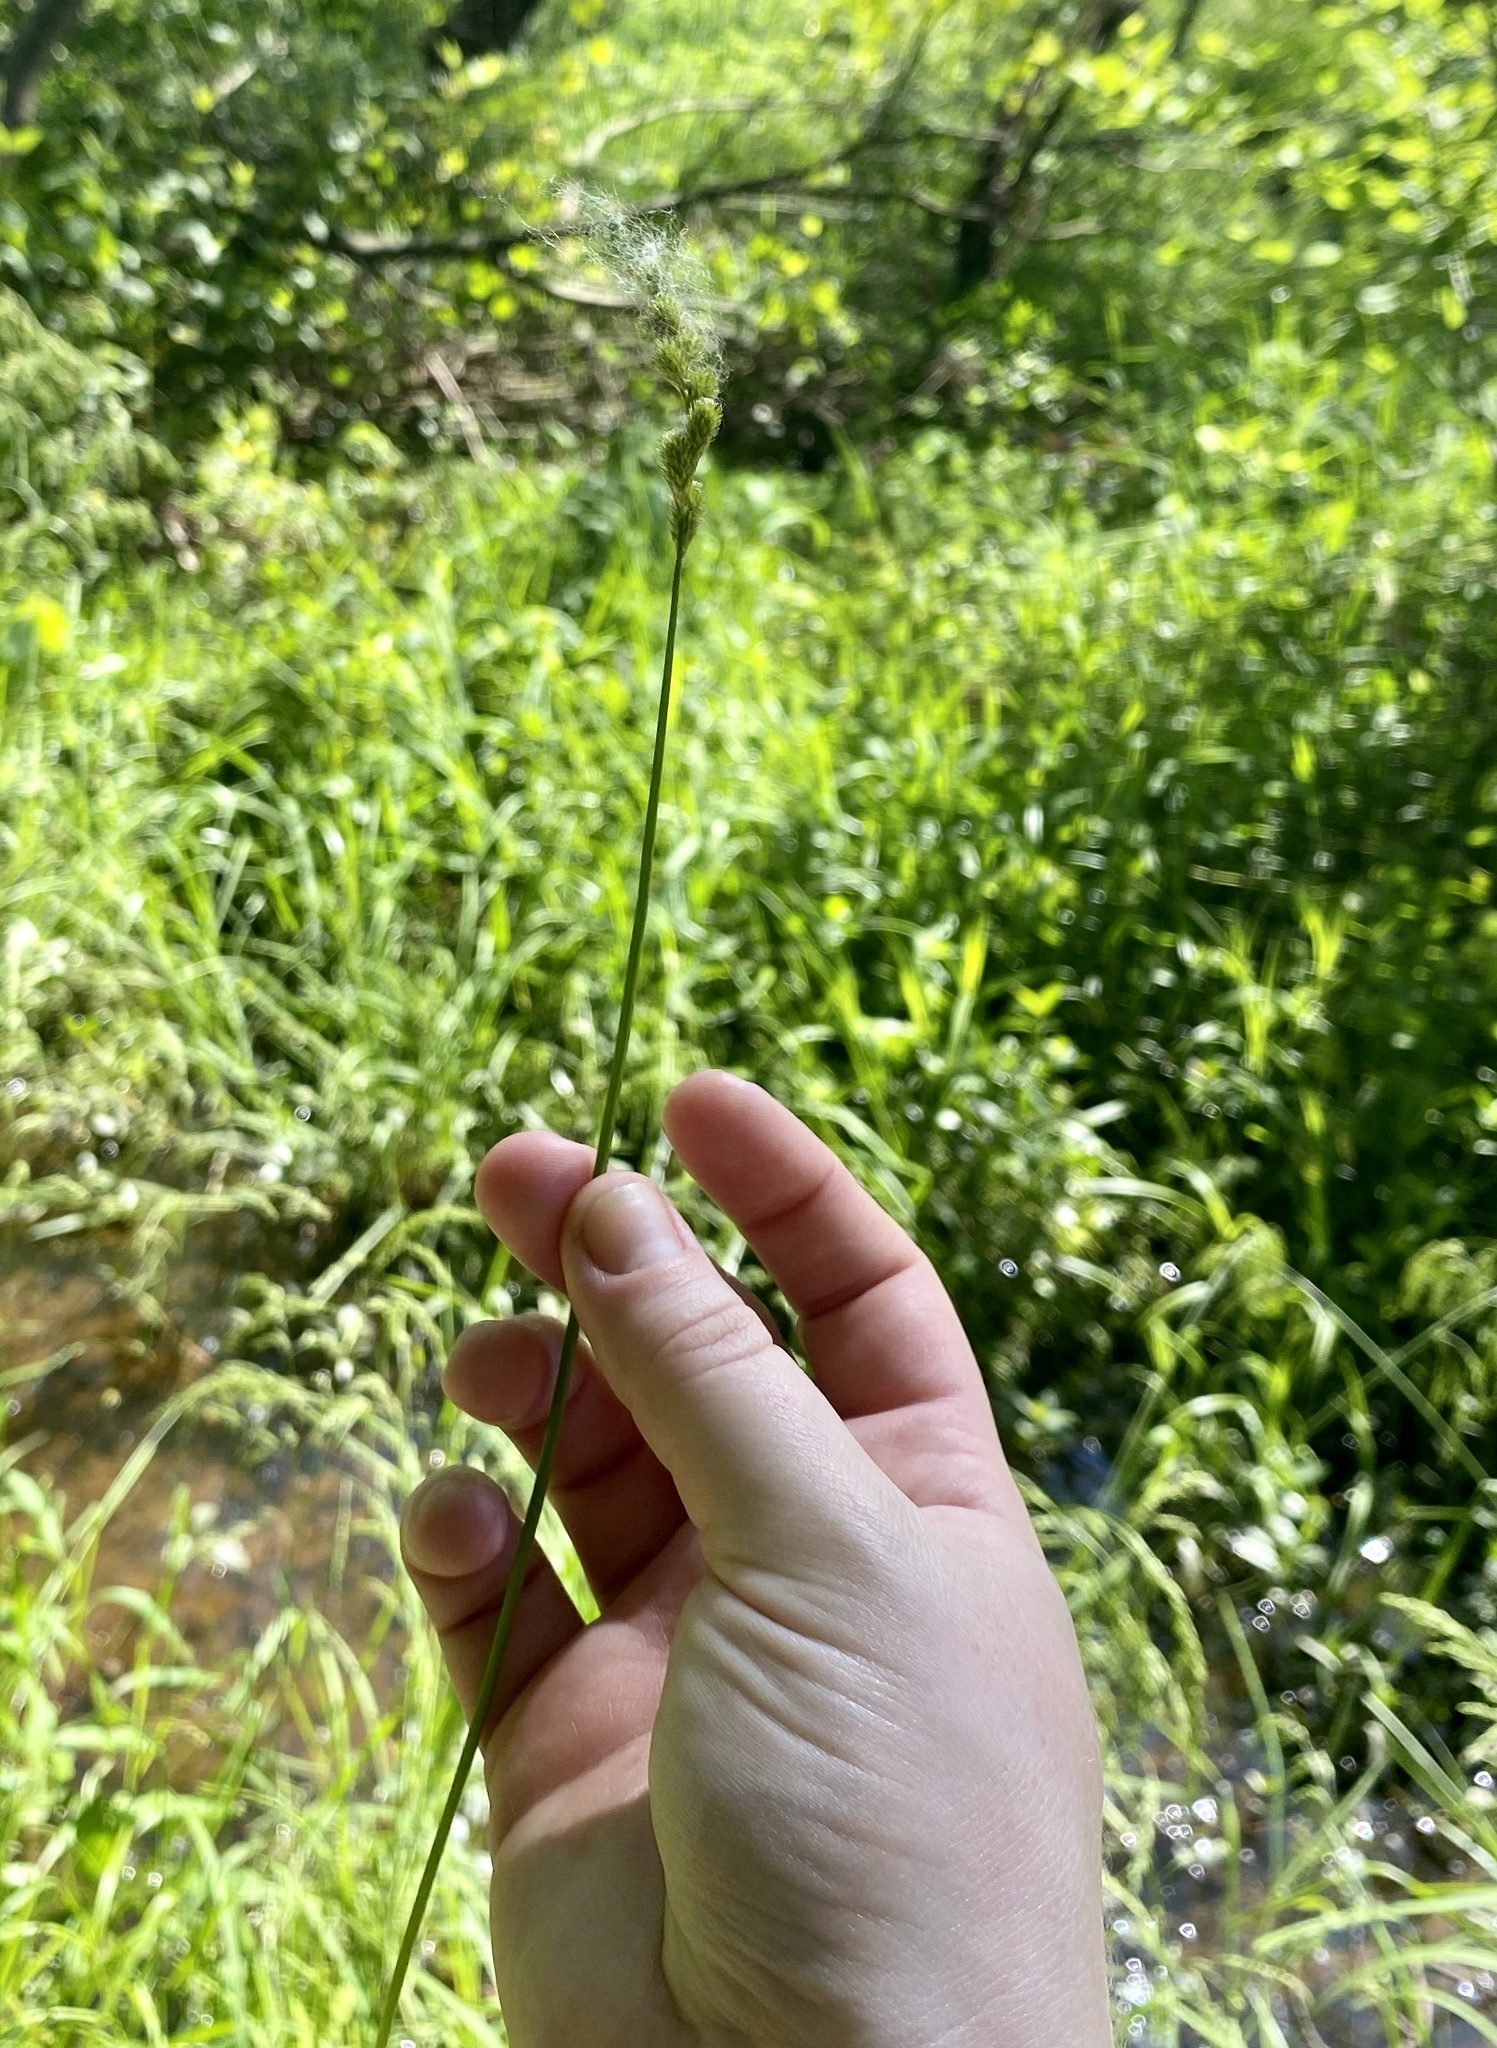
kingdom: Plantae
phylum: Tracheophyta
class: Liliopsida
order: Poales
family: Cyperaceae
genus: Carex
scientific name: Carex tribuloides
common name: Blunt broom sedge
